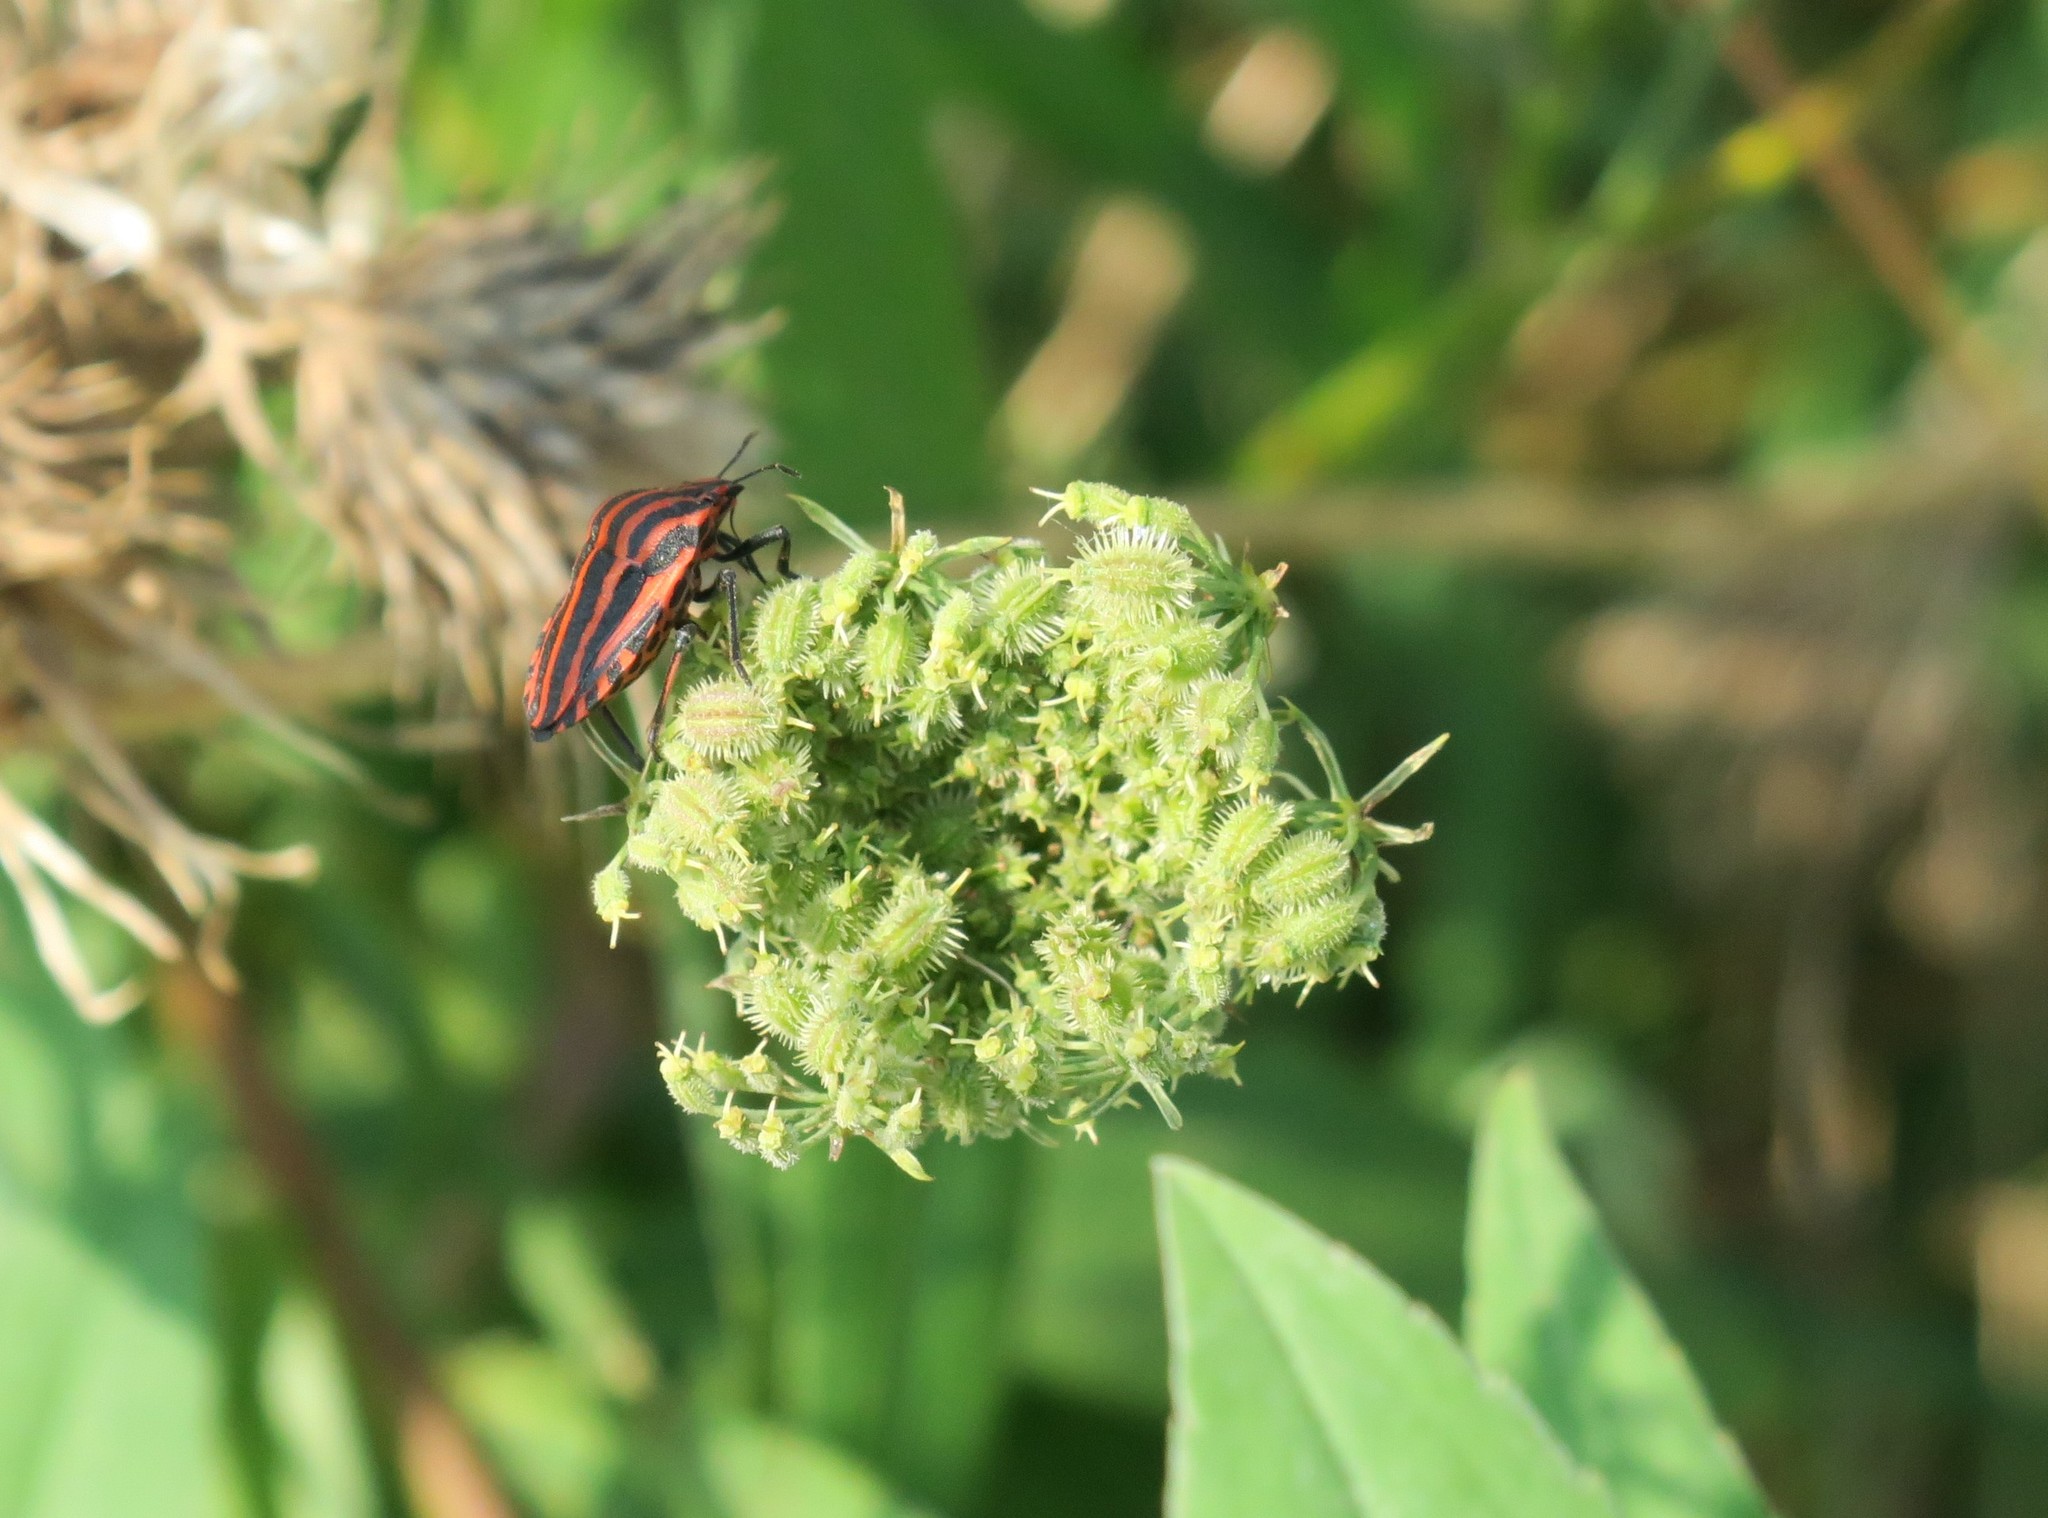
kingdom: Animalia
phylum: Arthropoda
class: Insecta
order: Hemiptera
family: Pentatomidae
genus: Graphosoma
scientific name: Graphosoma italicum
